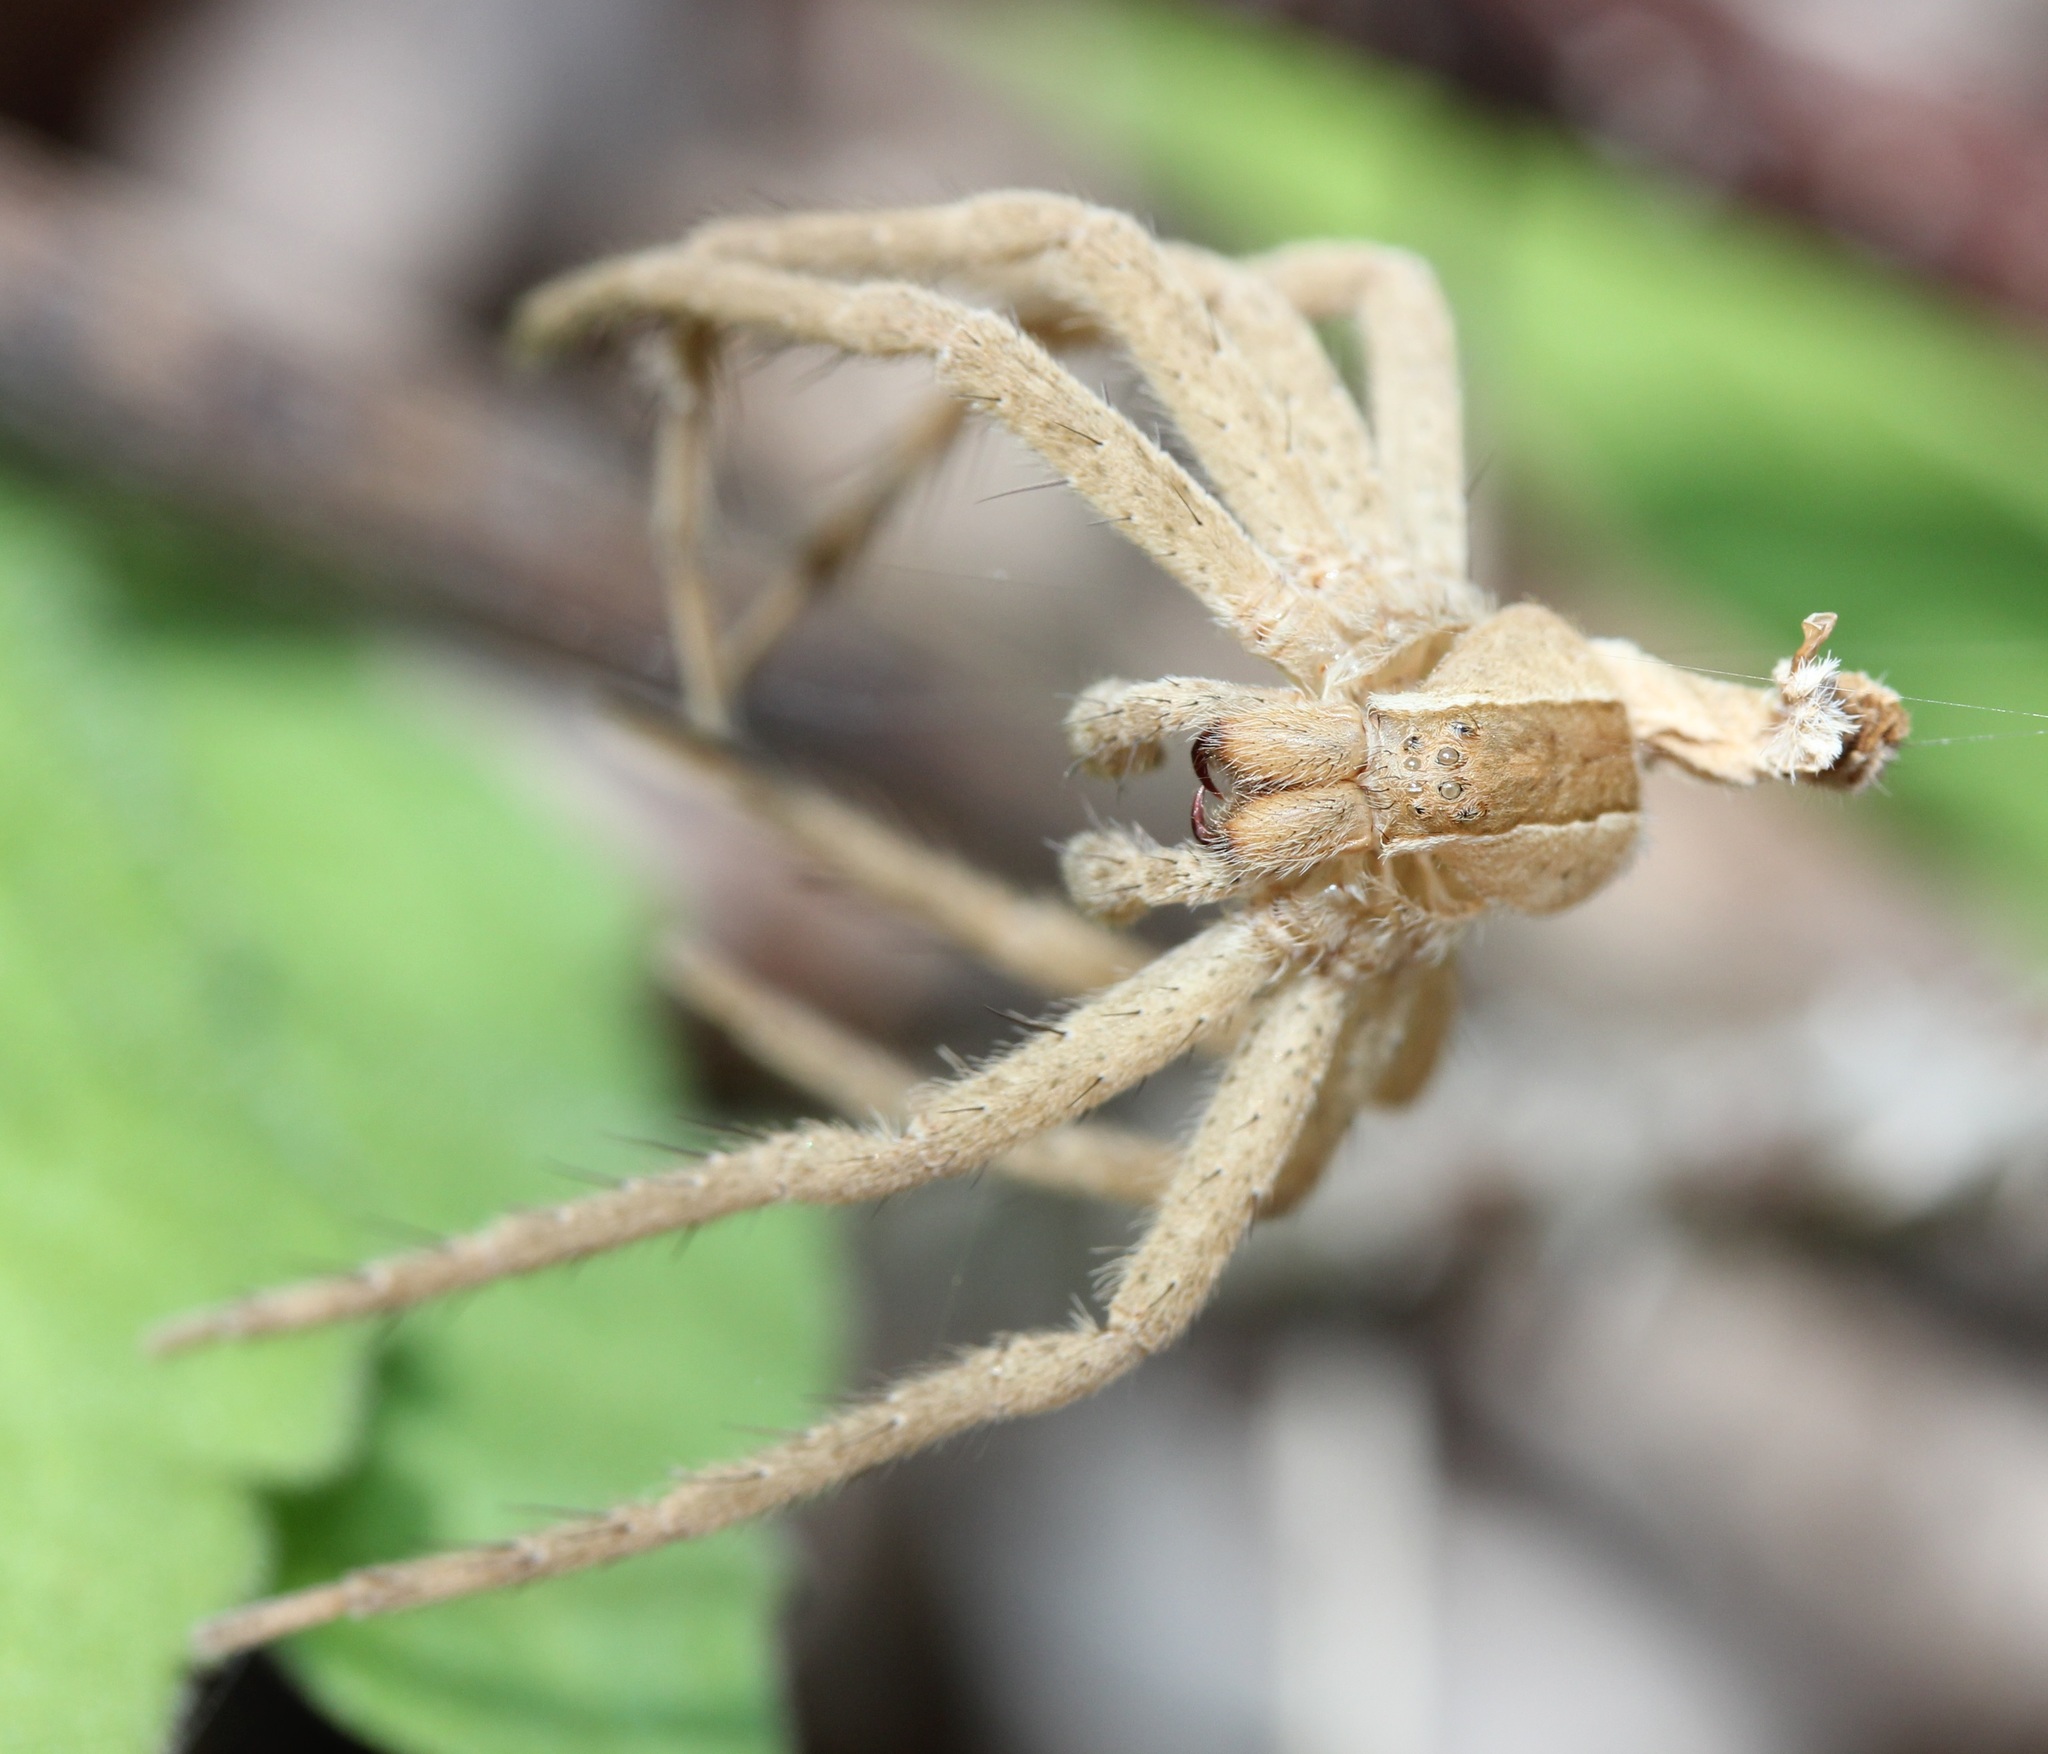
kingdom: Animalia
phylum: Arthropoda
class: Arachnida
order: Araneae
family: Pisauridae
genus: Pisaurina
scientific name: Pisaurina mira
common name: American nursery web spider
